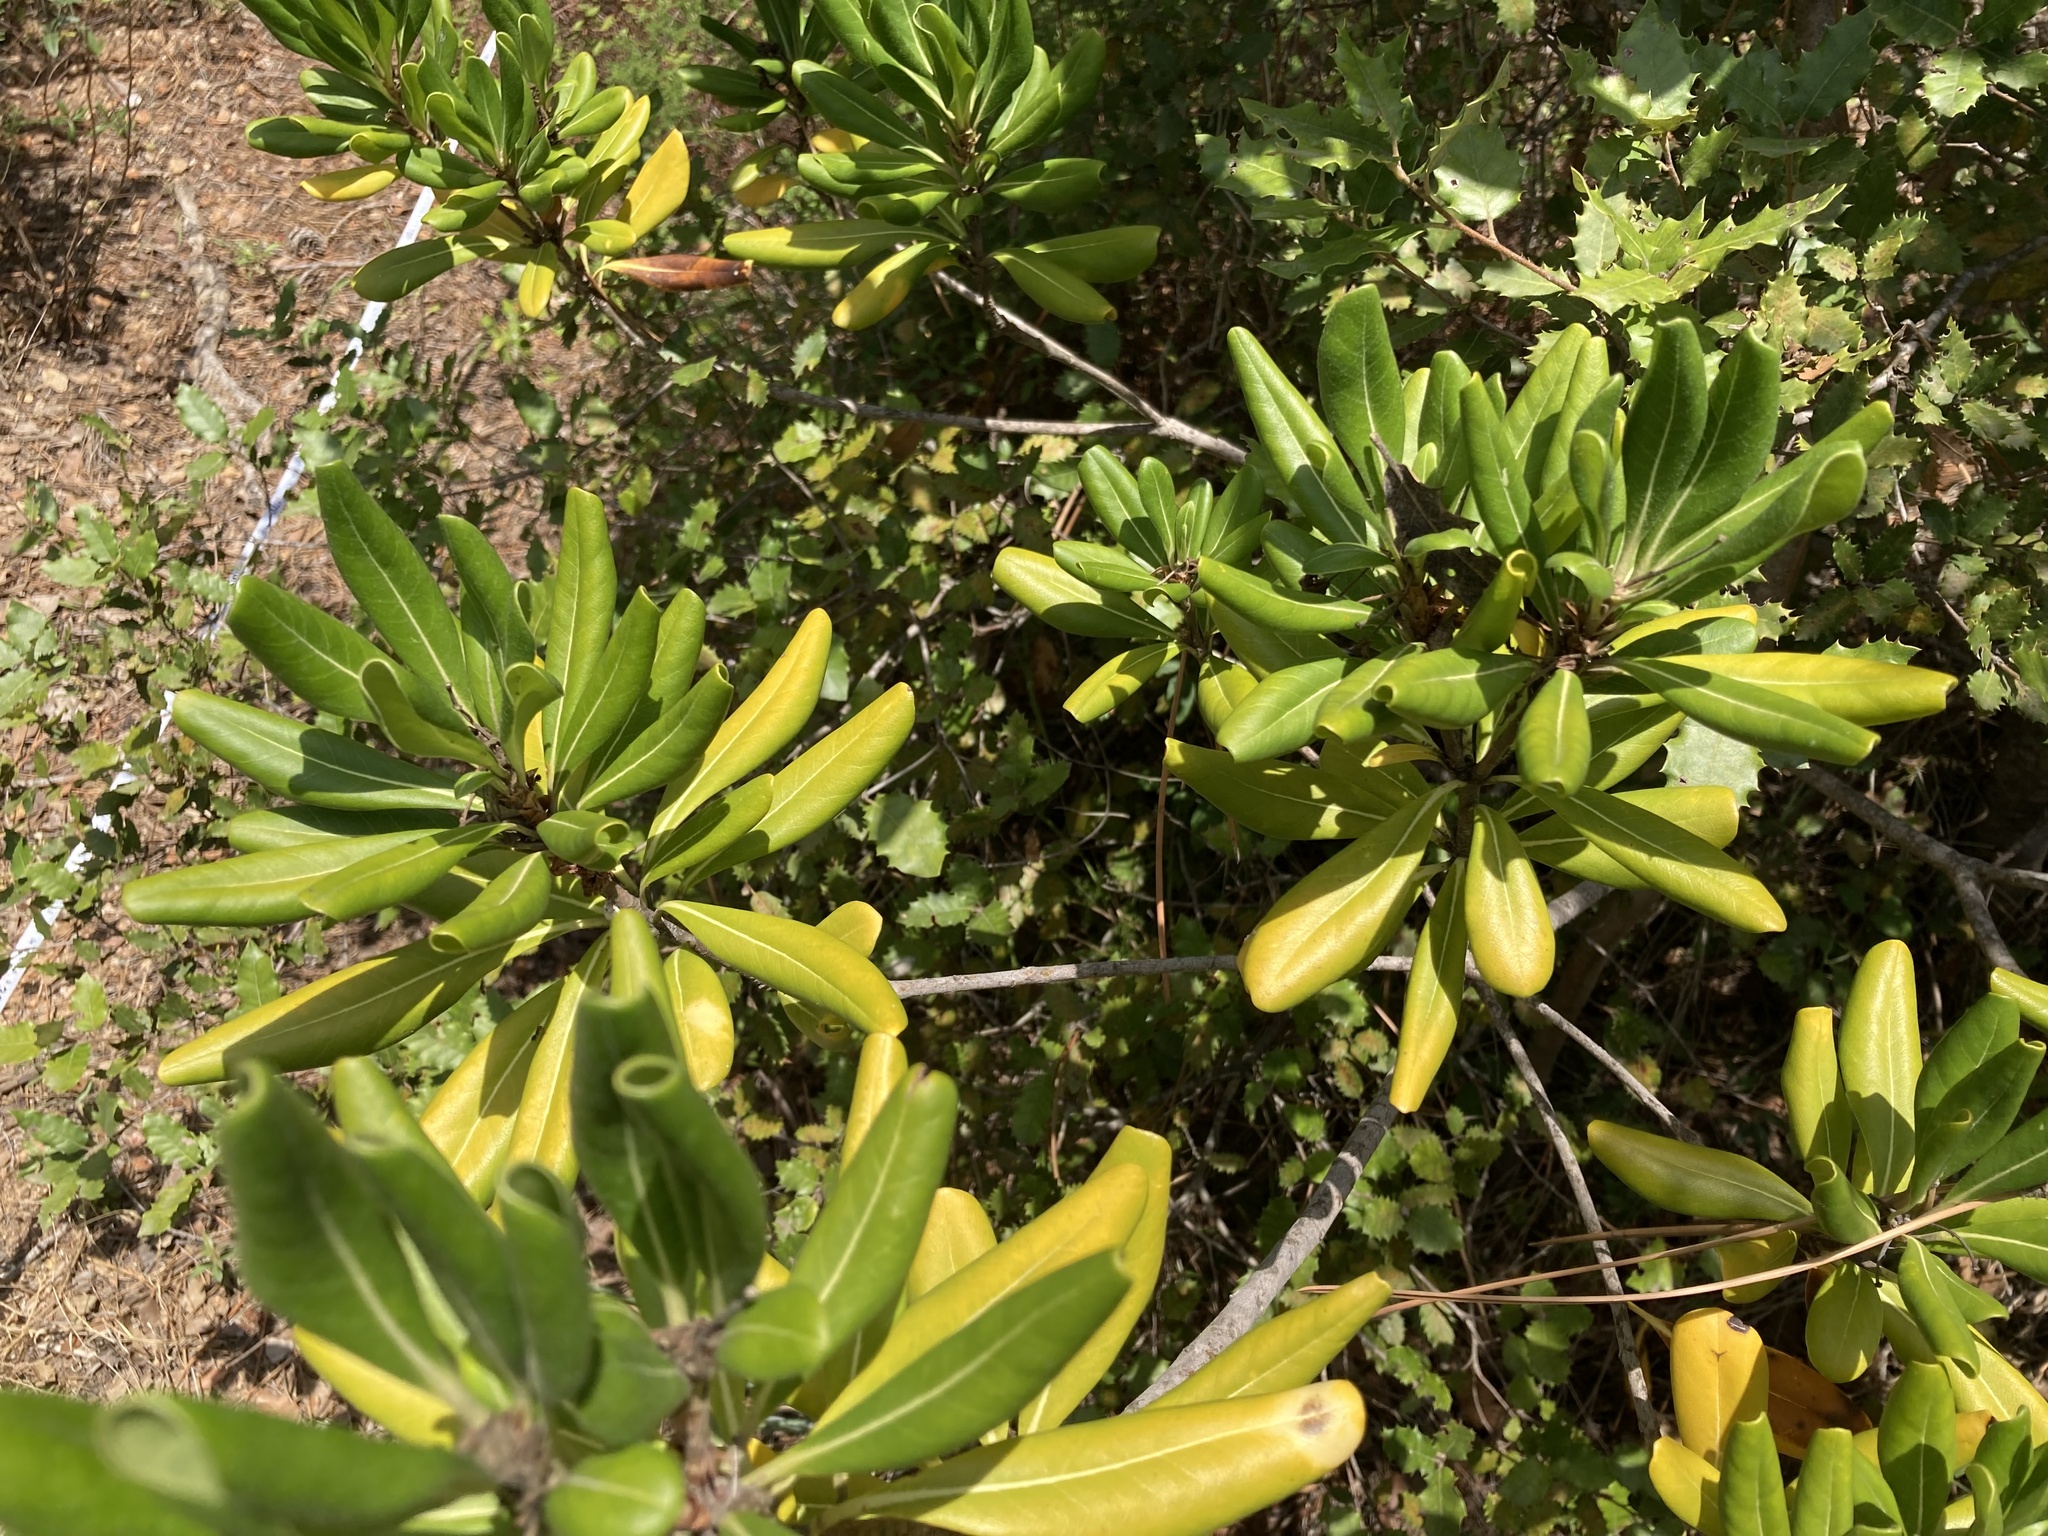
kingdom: Plantae
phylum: Tracheophyta
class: Magnoliopsida
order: Apiales
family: Pittosporaceae
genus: Pittosporum
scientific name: Pittosporum tobira
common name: Japanese cheesewood
